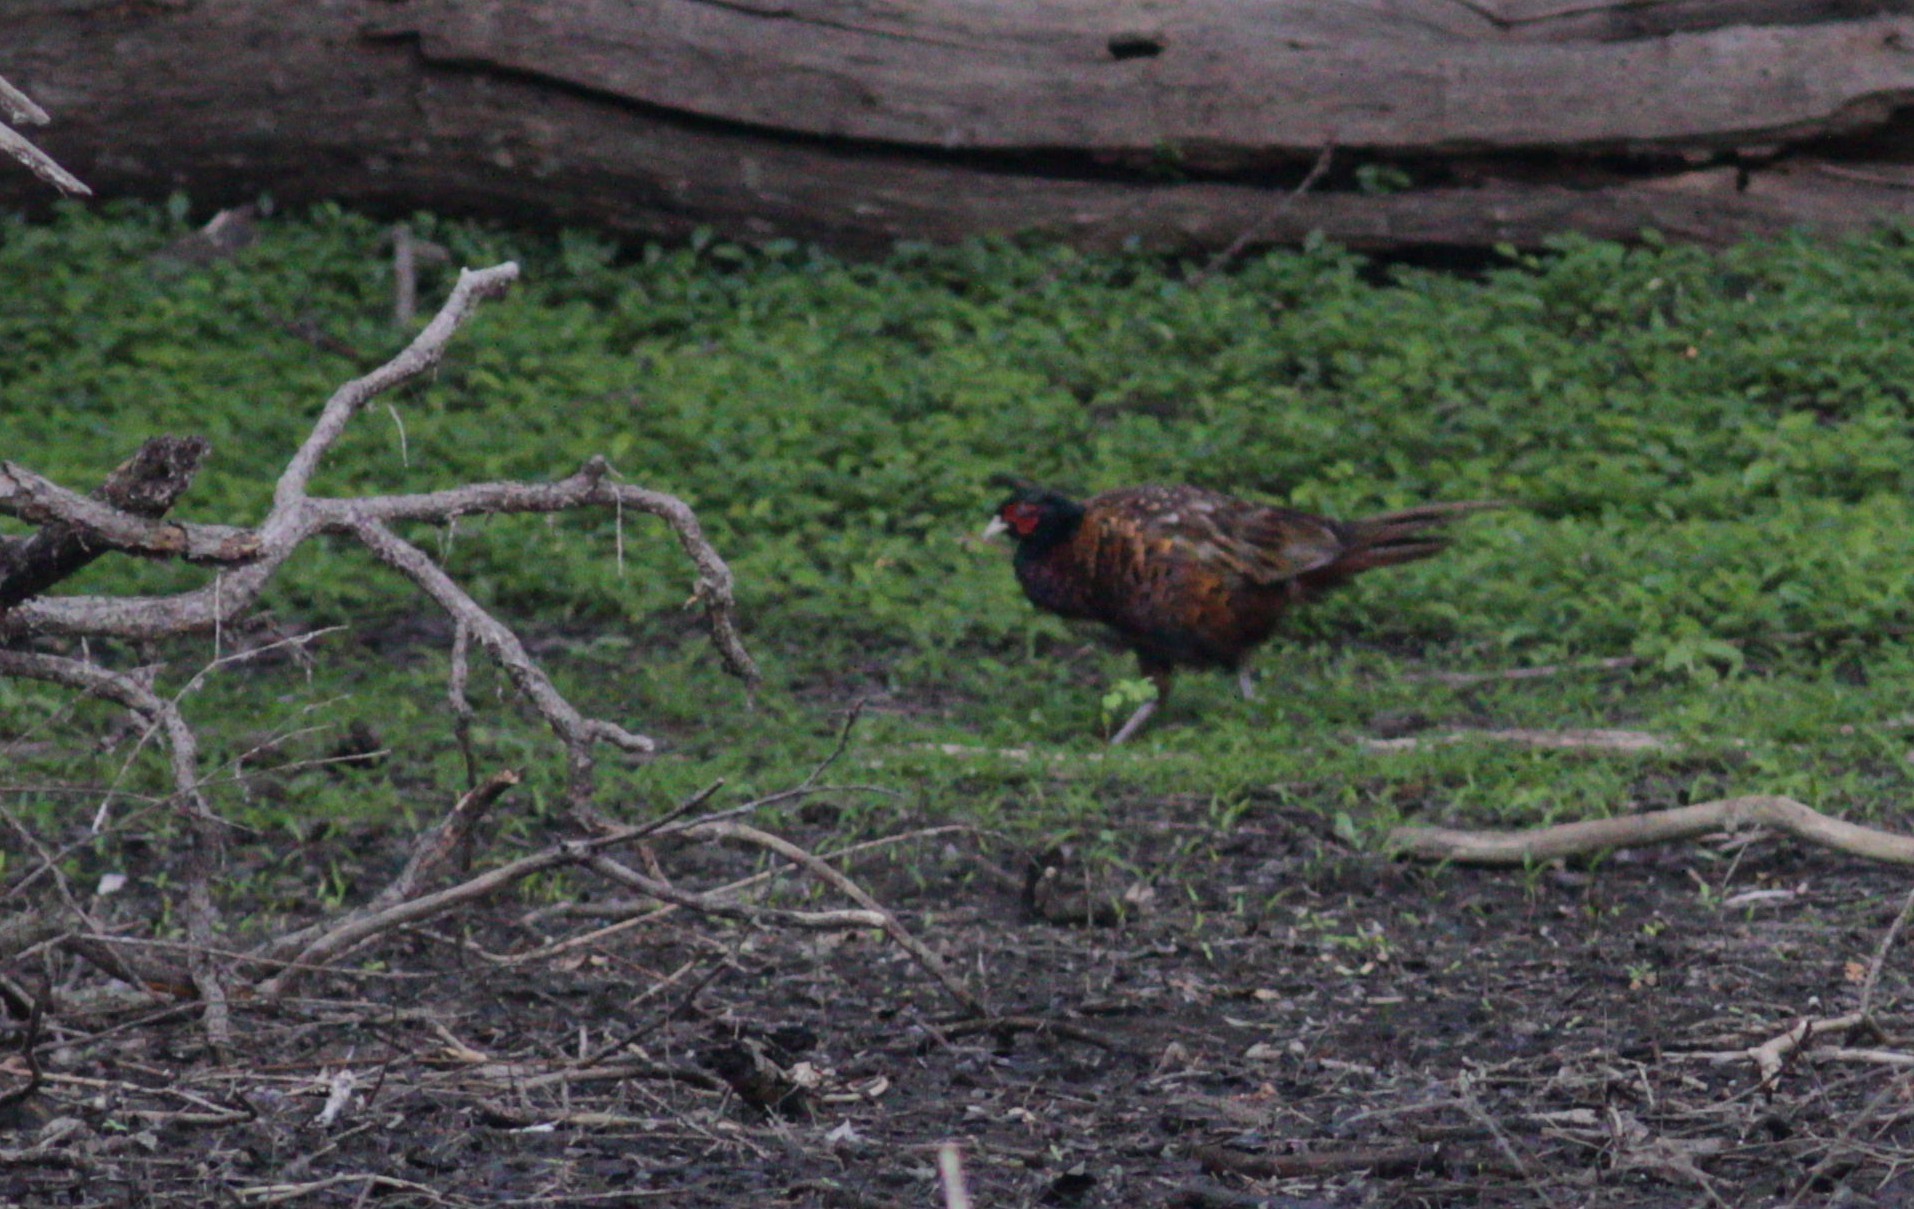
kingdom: Animalia
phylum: Chordata
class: Aves
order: Galliformes
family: Phasianidae
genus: Phasianus
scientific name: Phasianus colchicus
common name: Common pheasant
